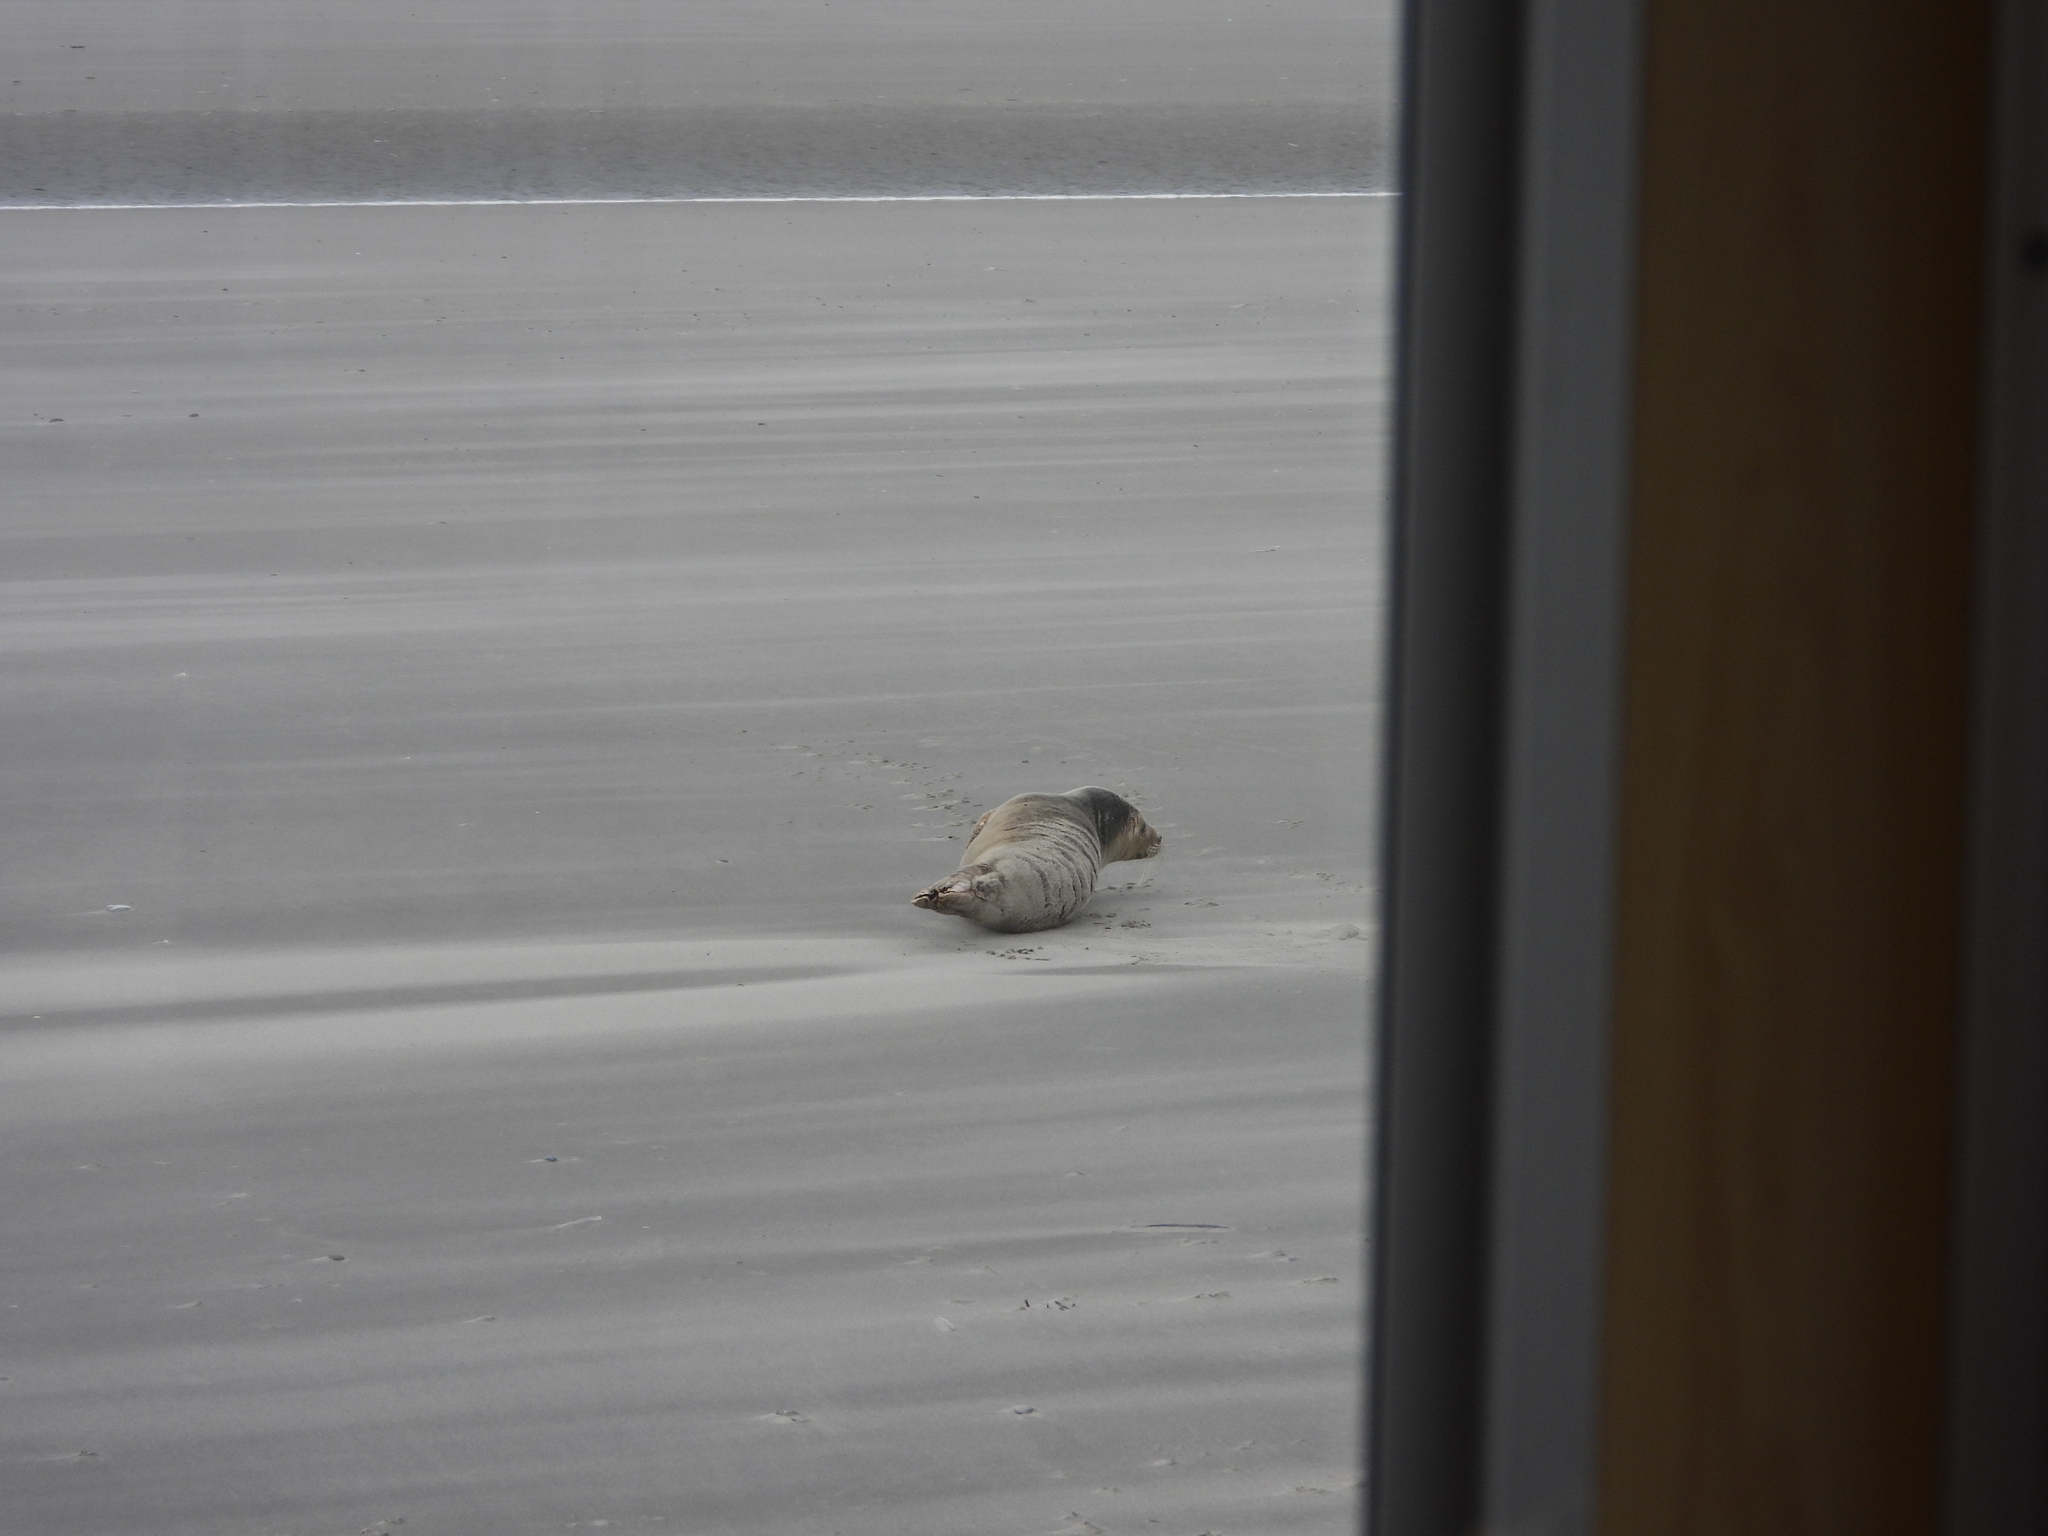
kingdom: Animalia
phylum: Chordata
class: Mammalia
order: Carnivora
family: Phocidae
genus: Phoca
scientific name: Phoca vitulina
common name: Harbor seal
